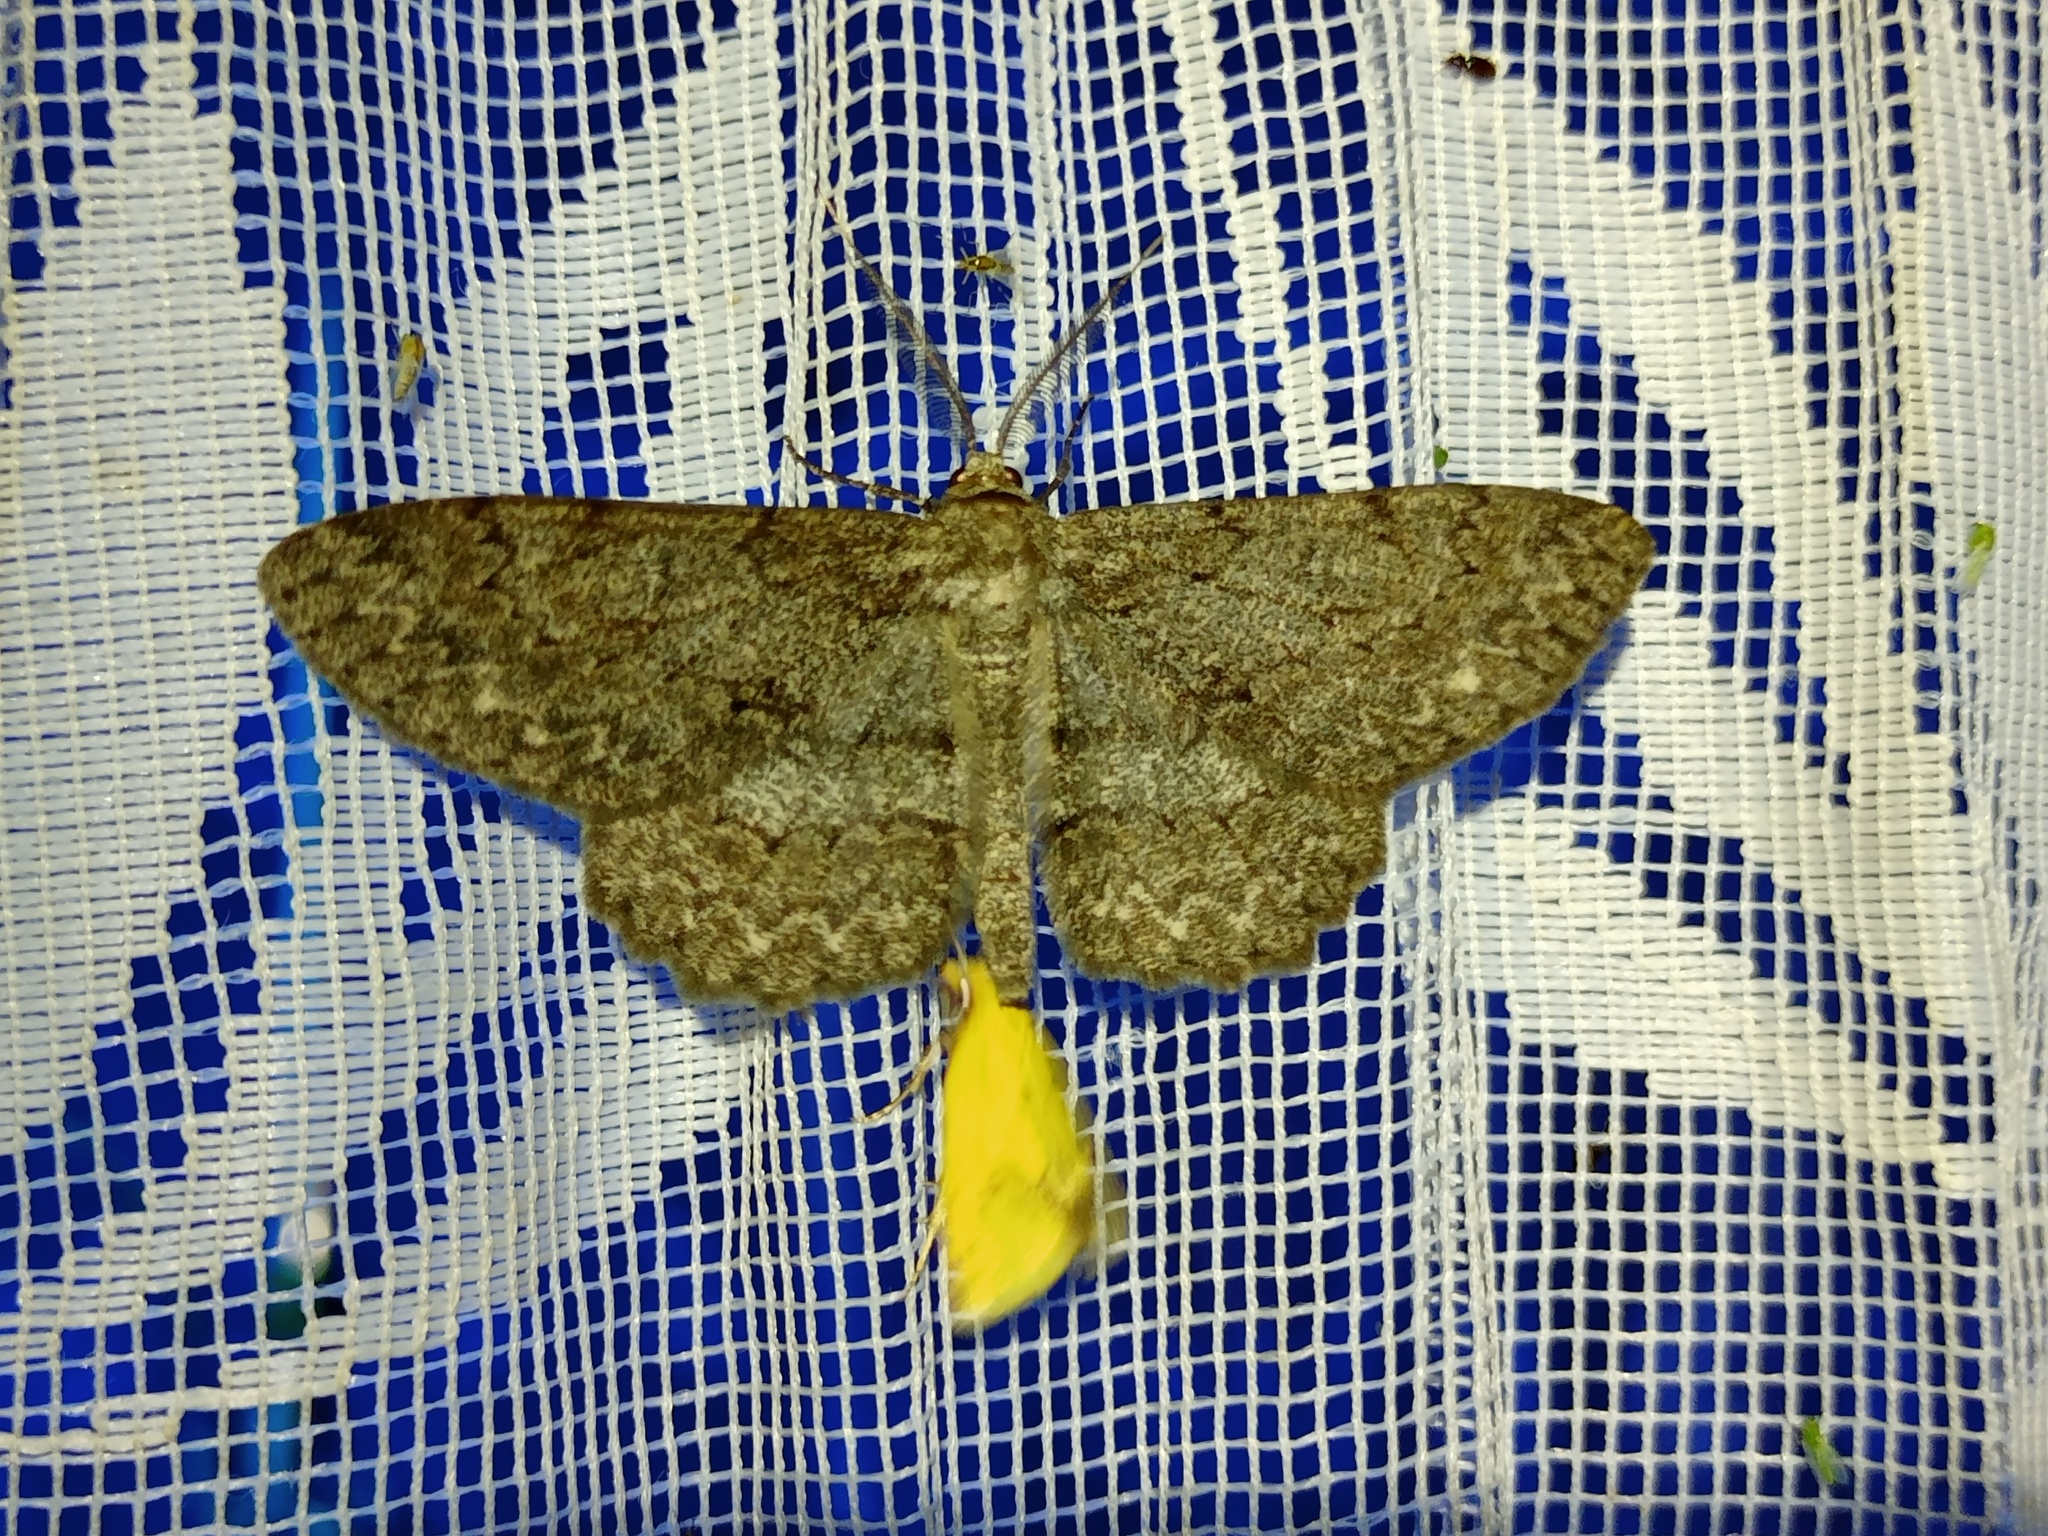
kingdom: Animalia
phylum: Arthropoda
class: Insecta
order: Lepidoptera
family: Geometridae
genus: Hypomecis
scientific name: Hypomecis punctinalis
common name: Pale oak beauty
